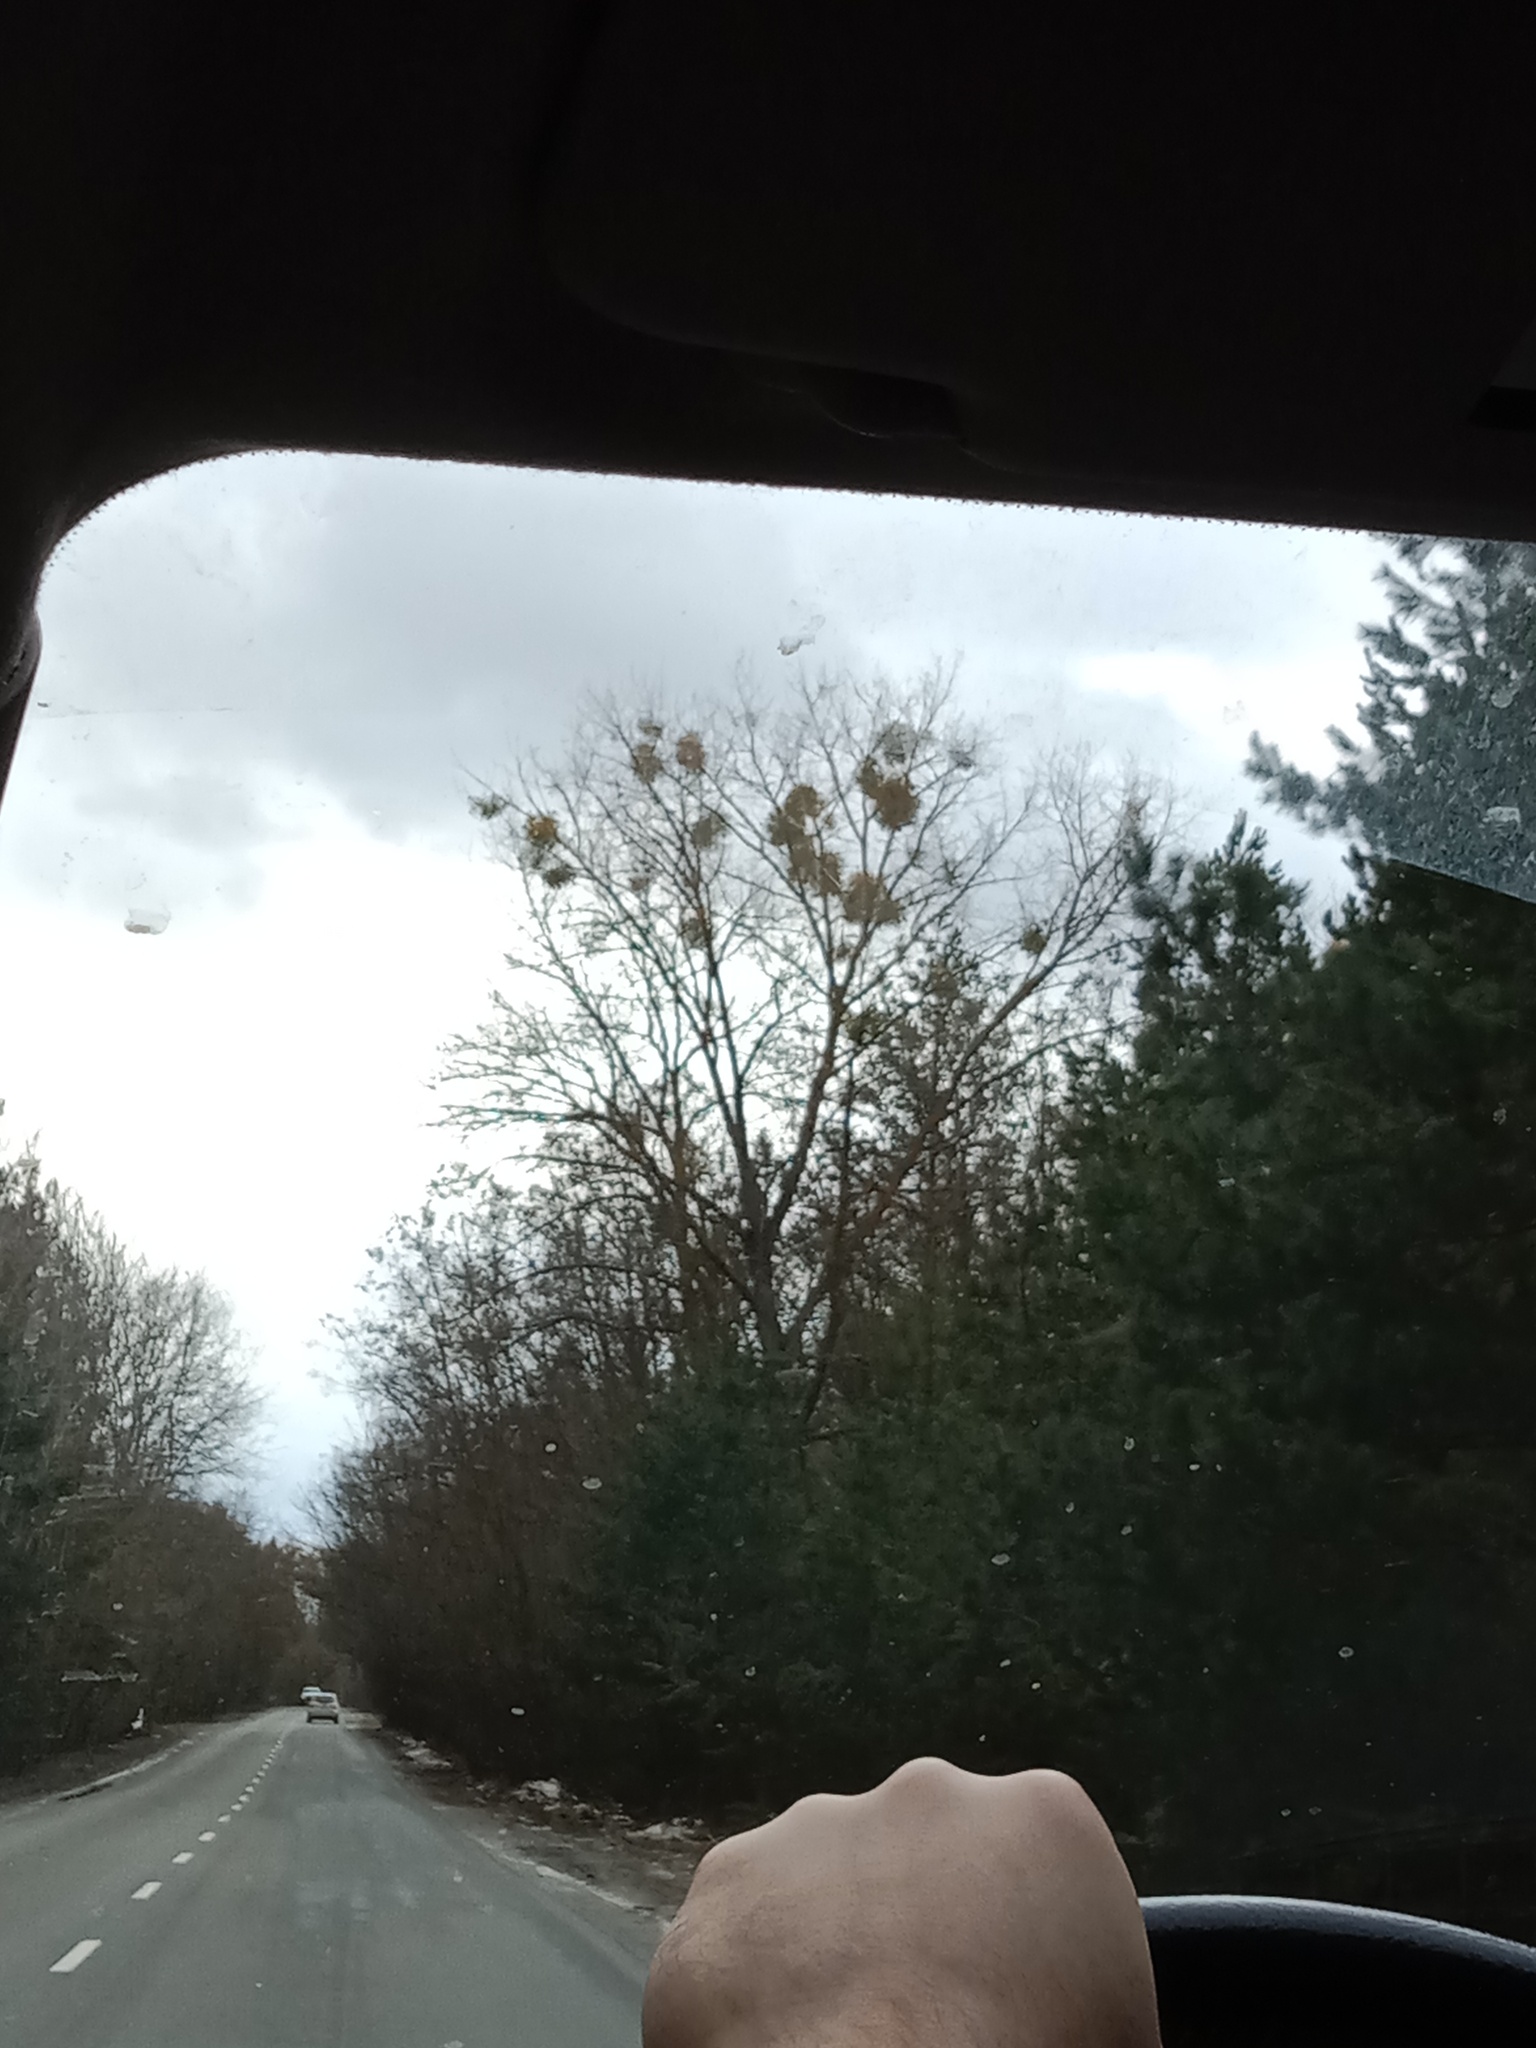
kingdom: Plantae
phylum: Tracheophyta
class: Magnoliopsida
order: Santalales
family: Viscaceae
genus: Viscum
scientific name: Viscum album
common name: Mistletoe
